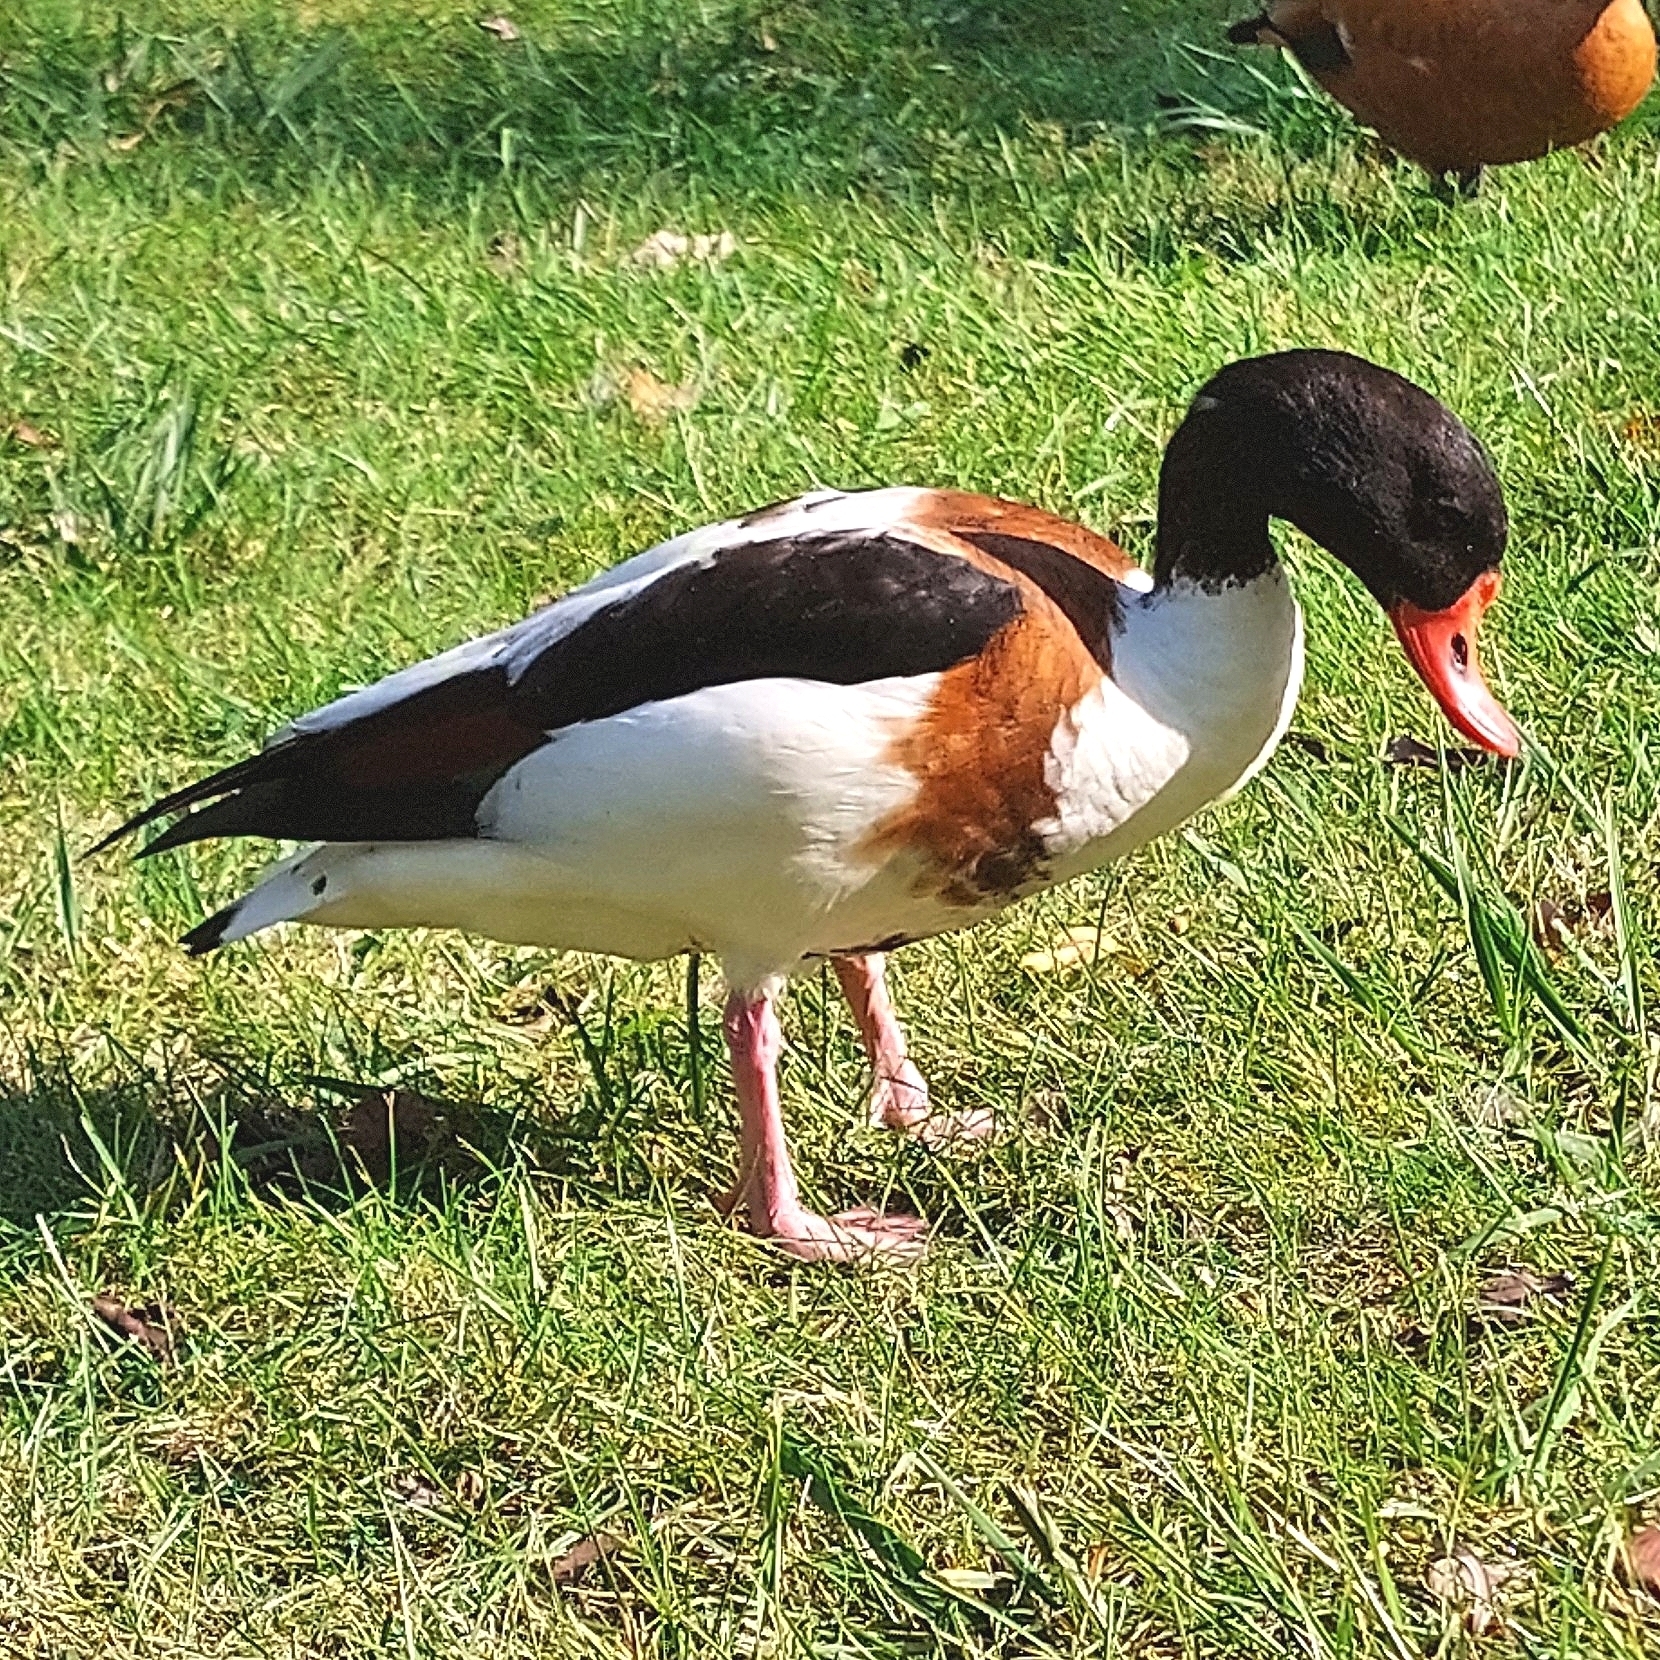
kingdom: Animalia
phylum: Chordata
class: Aves
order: Anseriformes
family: Anatidae
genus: Tadorna
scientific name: Tadorna tadorna
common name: Common shelduck
